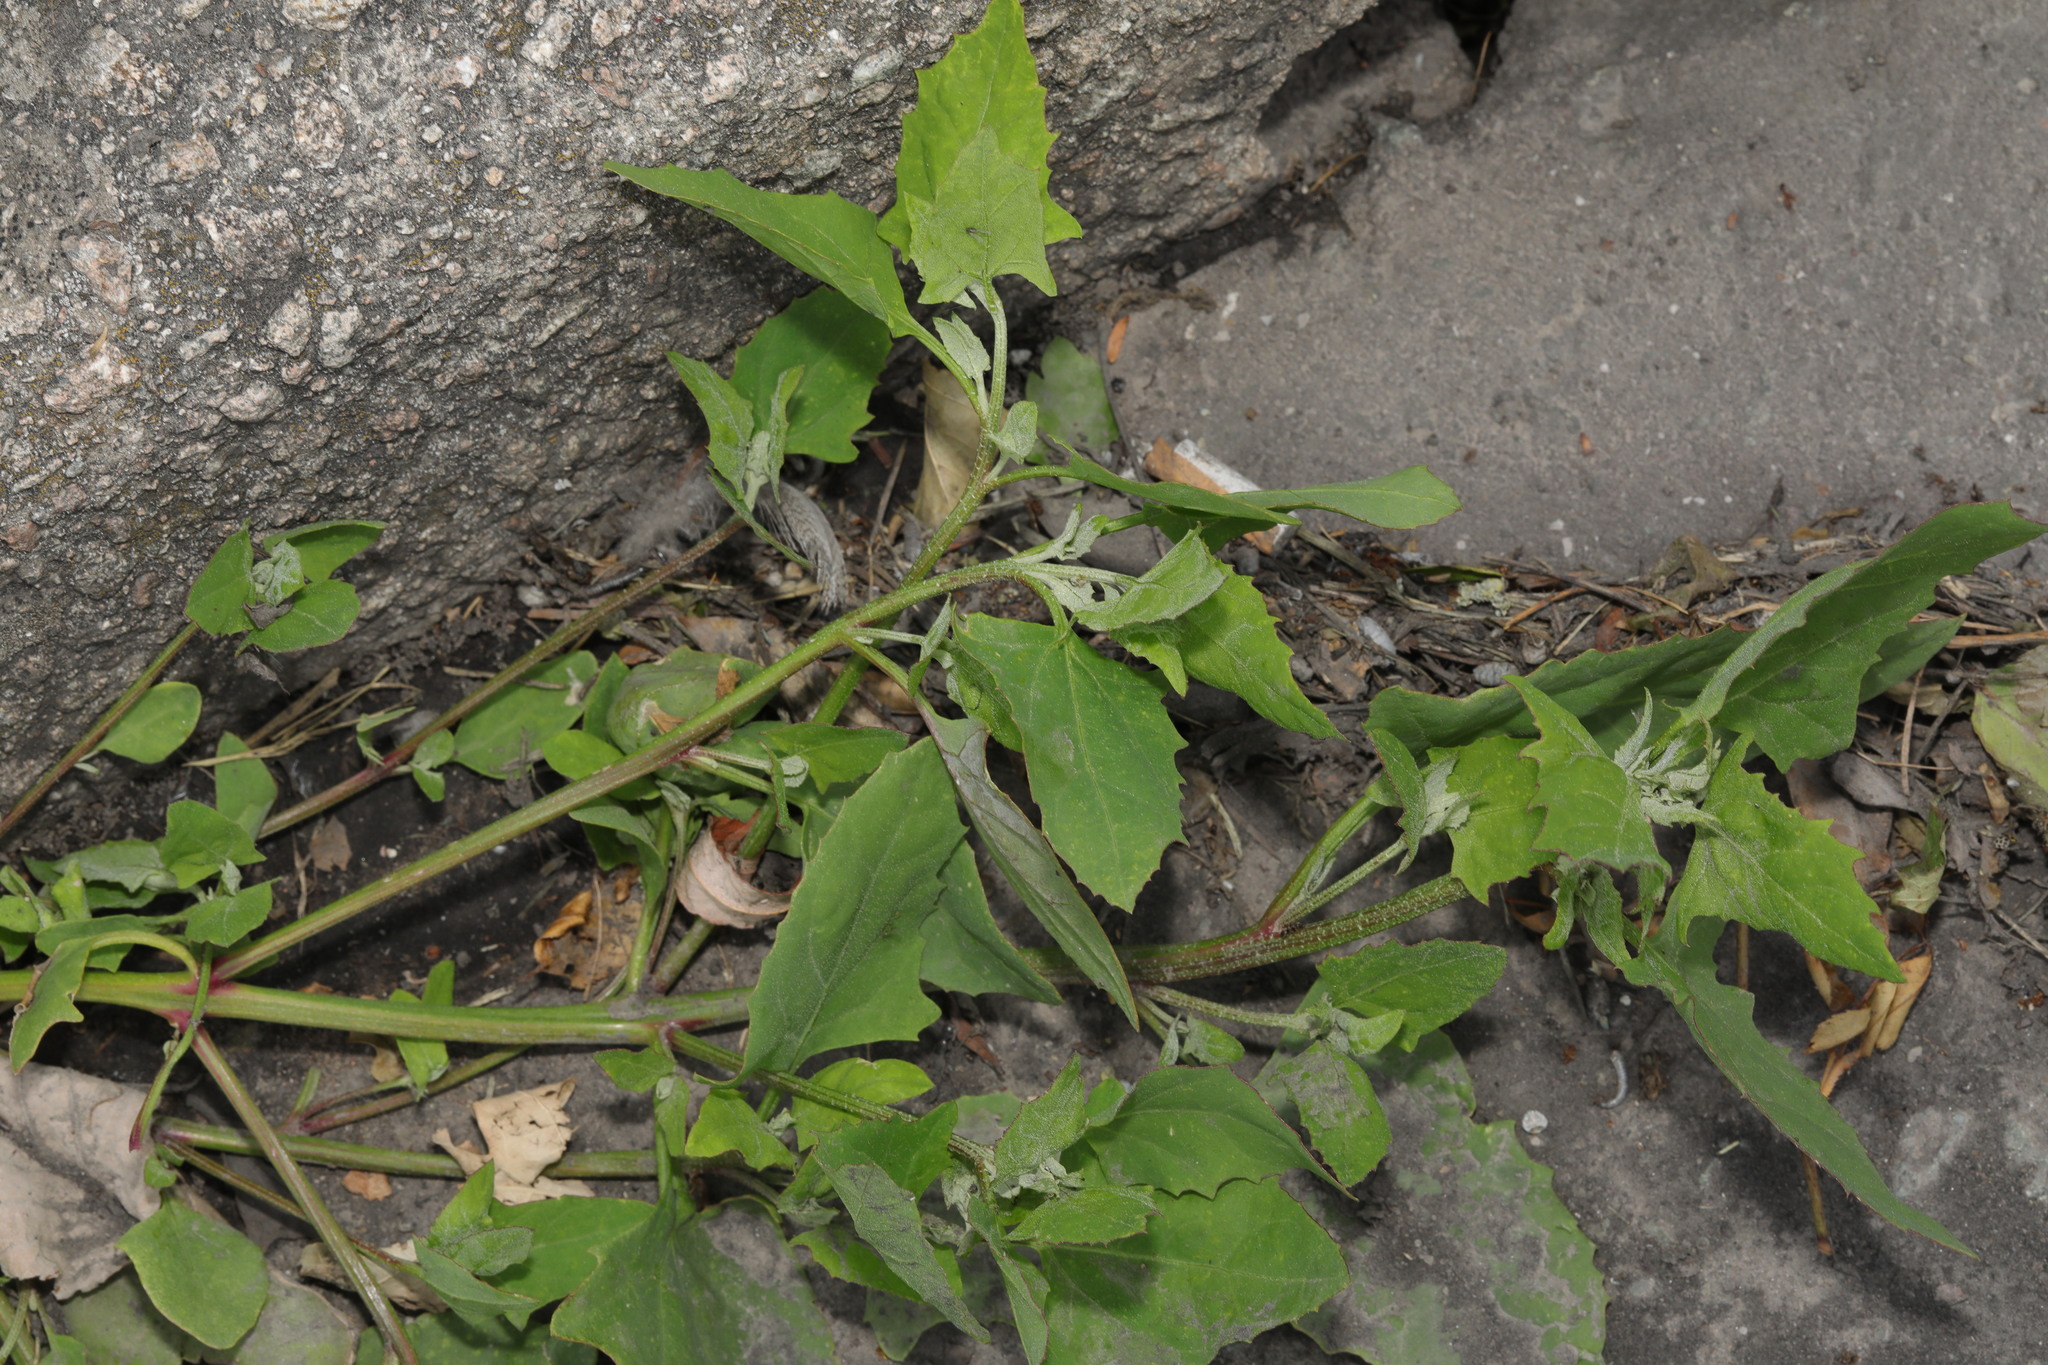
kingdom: Plantae
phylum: Tracheophyta
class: Magnoliopsida
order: Caryophyllales
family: Amaranthaceae
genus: Atriplex
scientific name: Atriplex prostrata
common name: Spear-leaved orache
